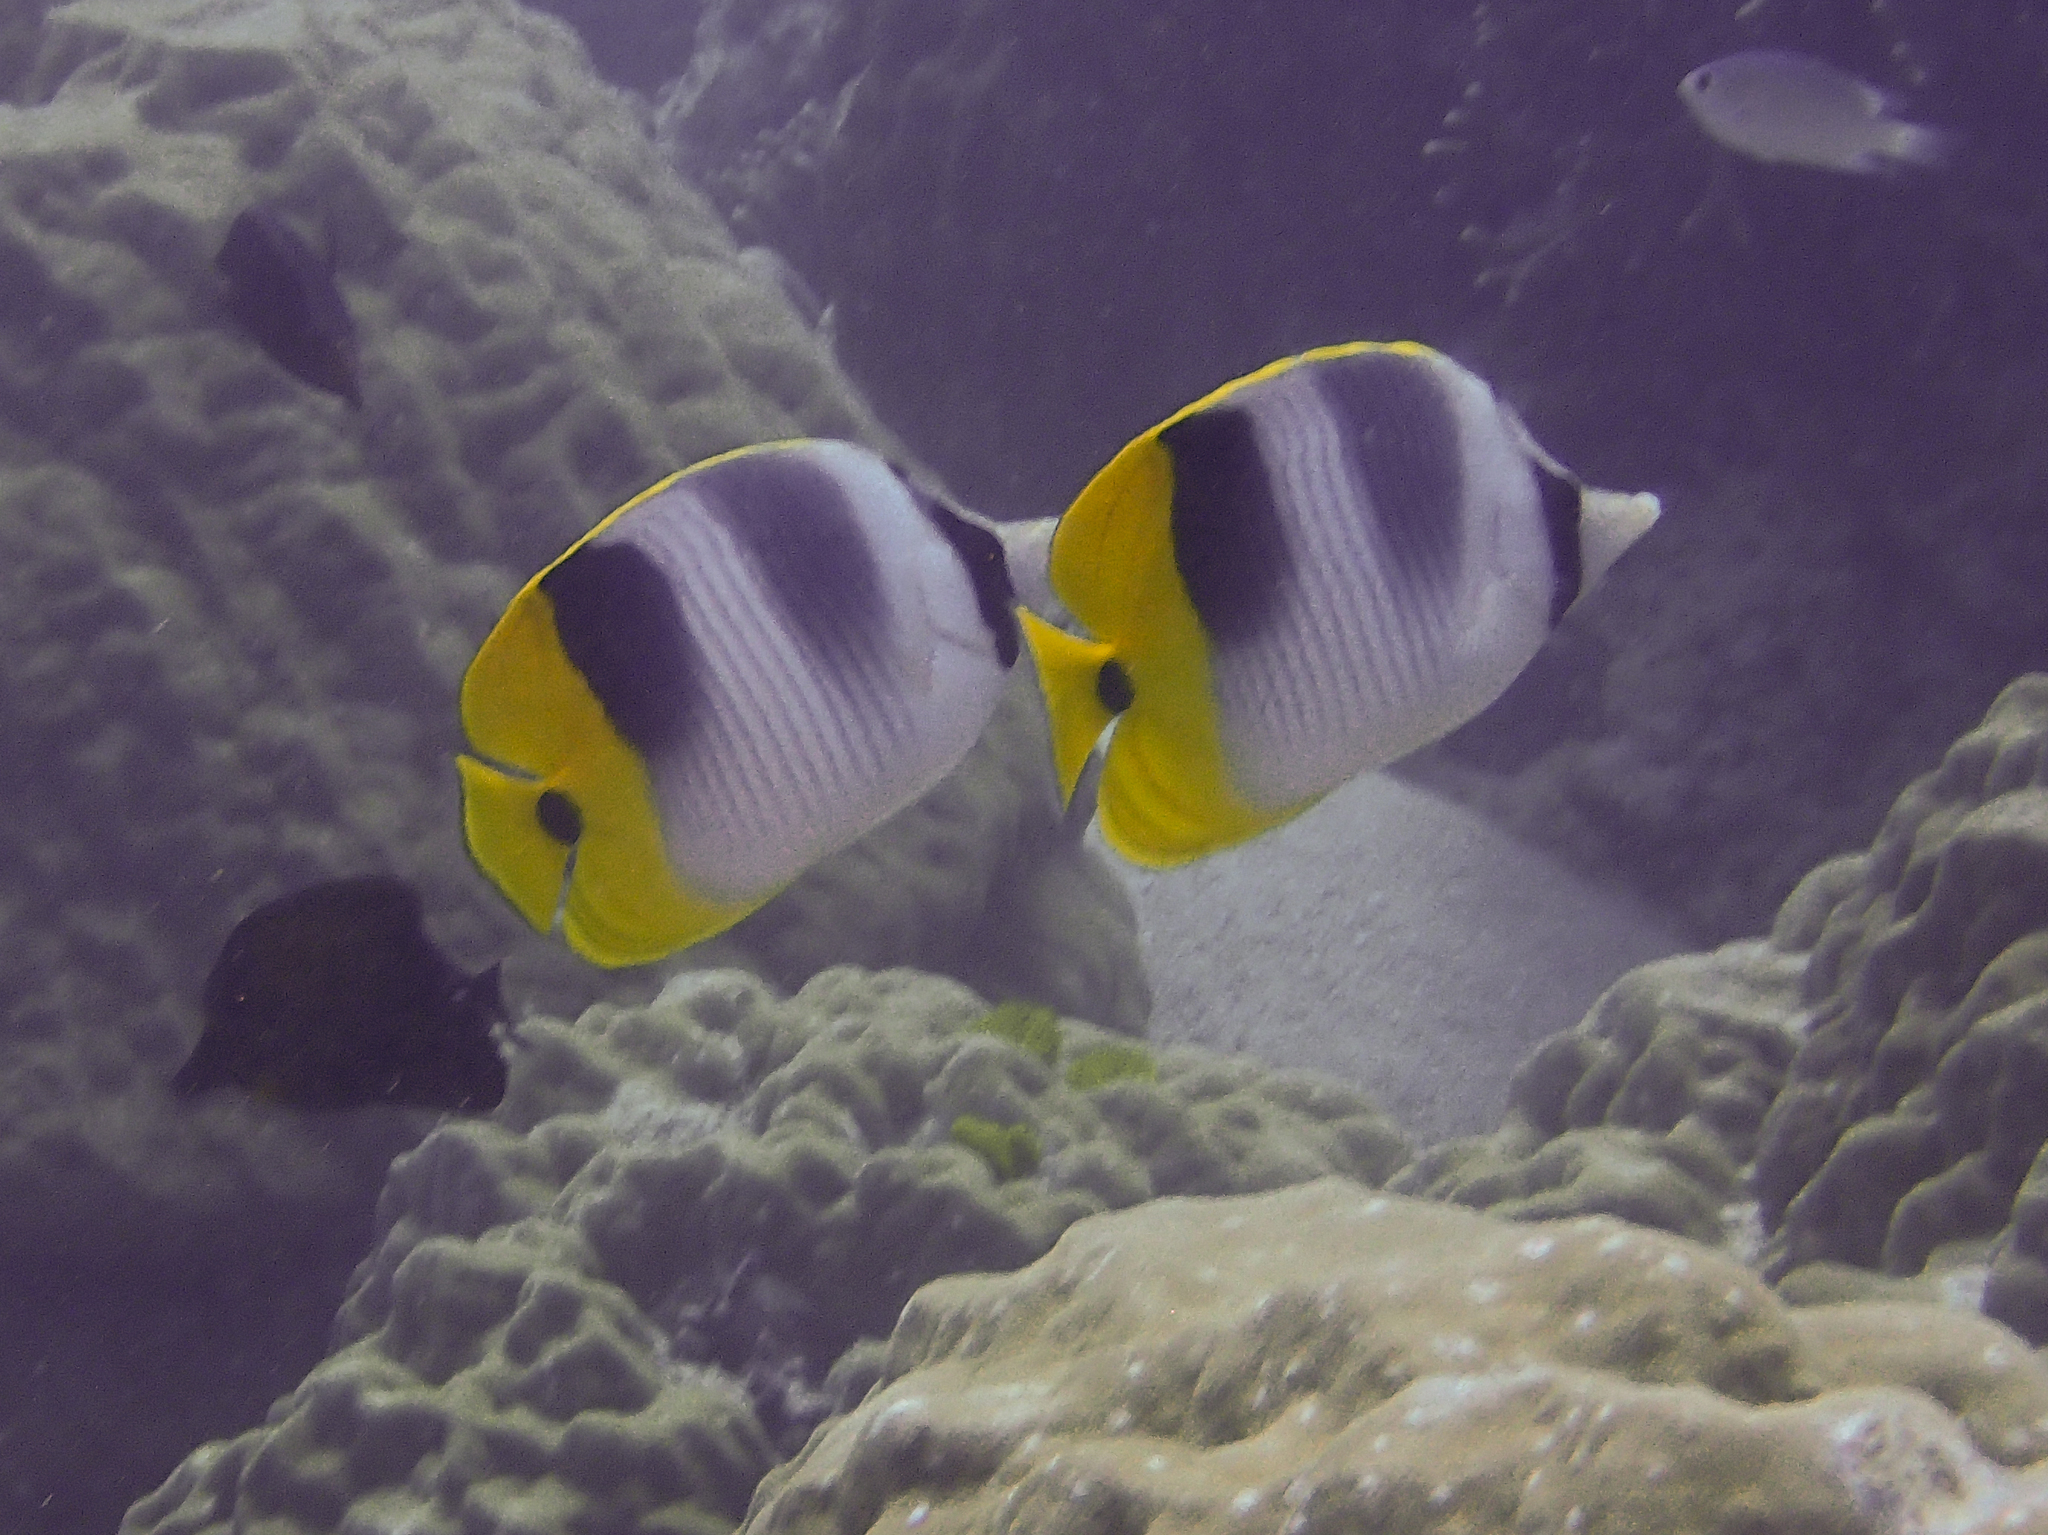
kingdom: Animalia
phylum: Chordata
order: Perciformes
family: Chaetodontidae
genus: Chaetodon
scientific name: Chaetodon ulietensis
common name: Pacific double-saddle butterflyfish
